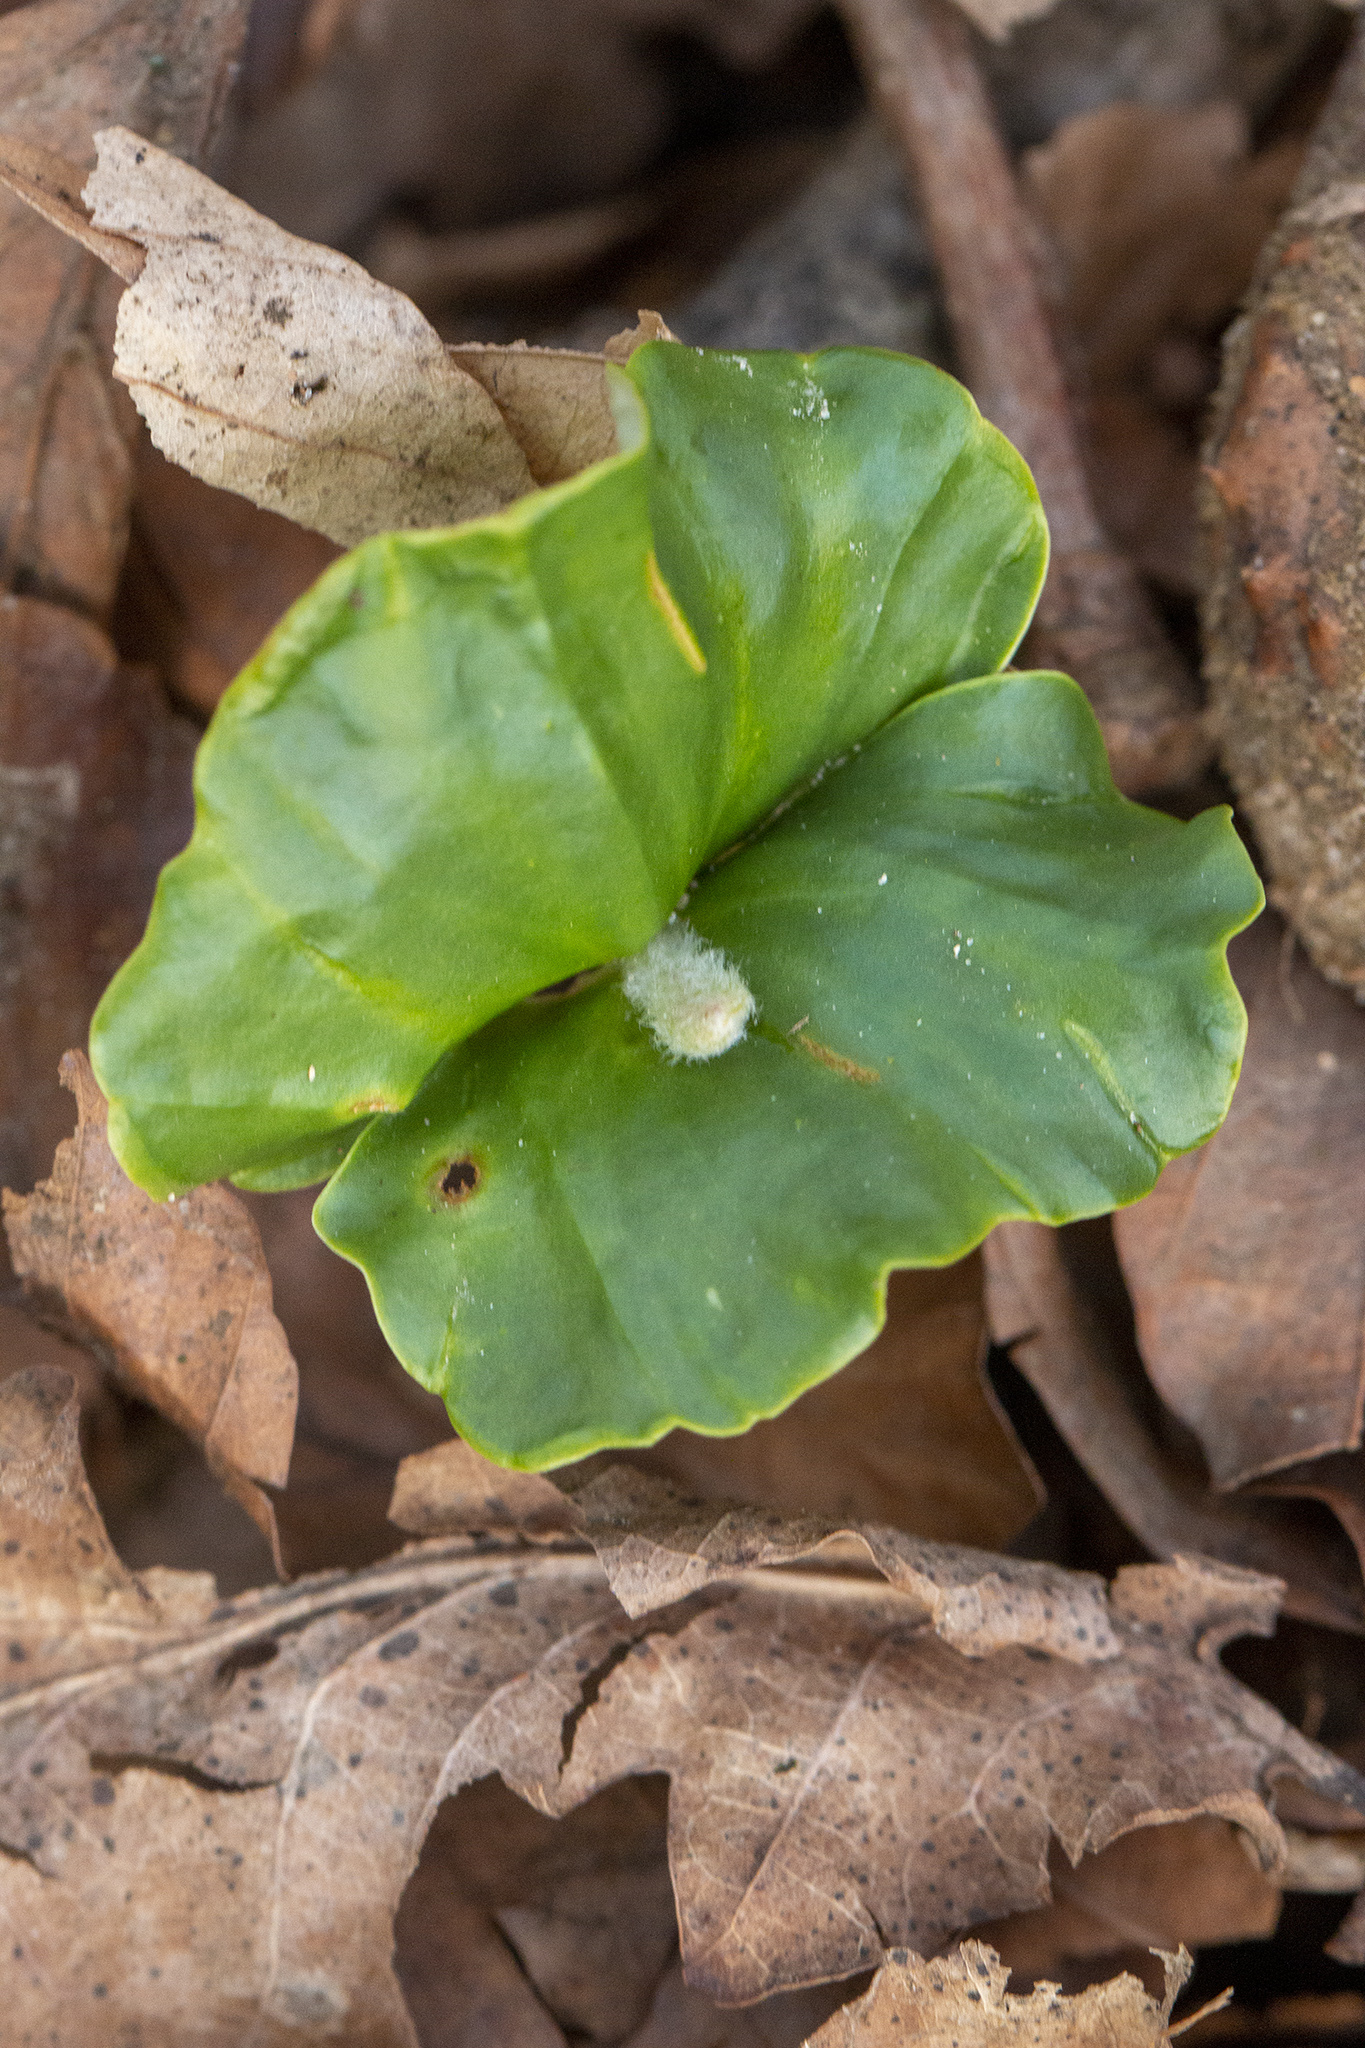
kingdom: Plantae
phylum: Tracheophyta
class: Magnoliopsida
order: Fagales
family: Fagaceae
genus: Fagus
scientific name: Fagus sylvatica
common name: Beech
